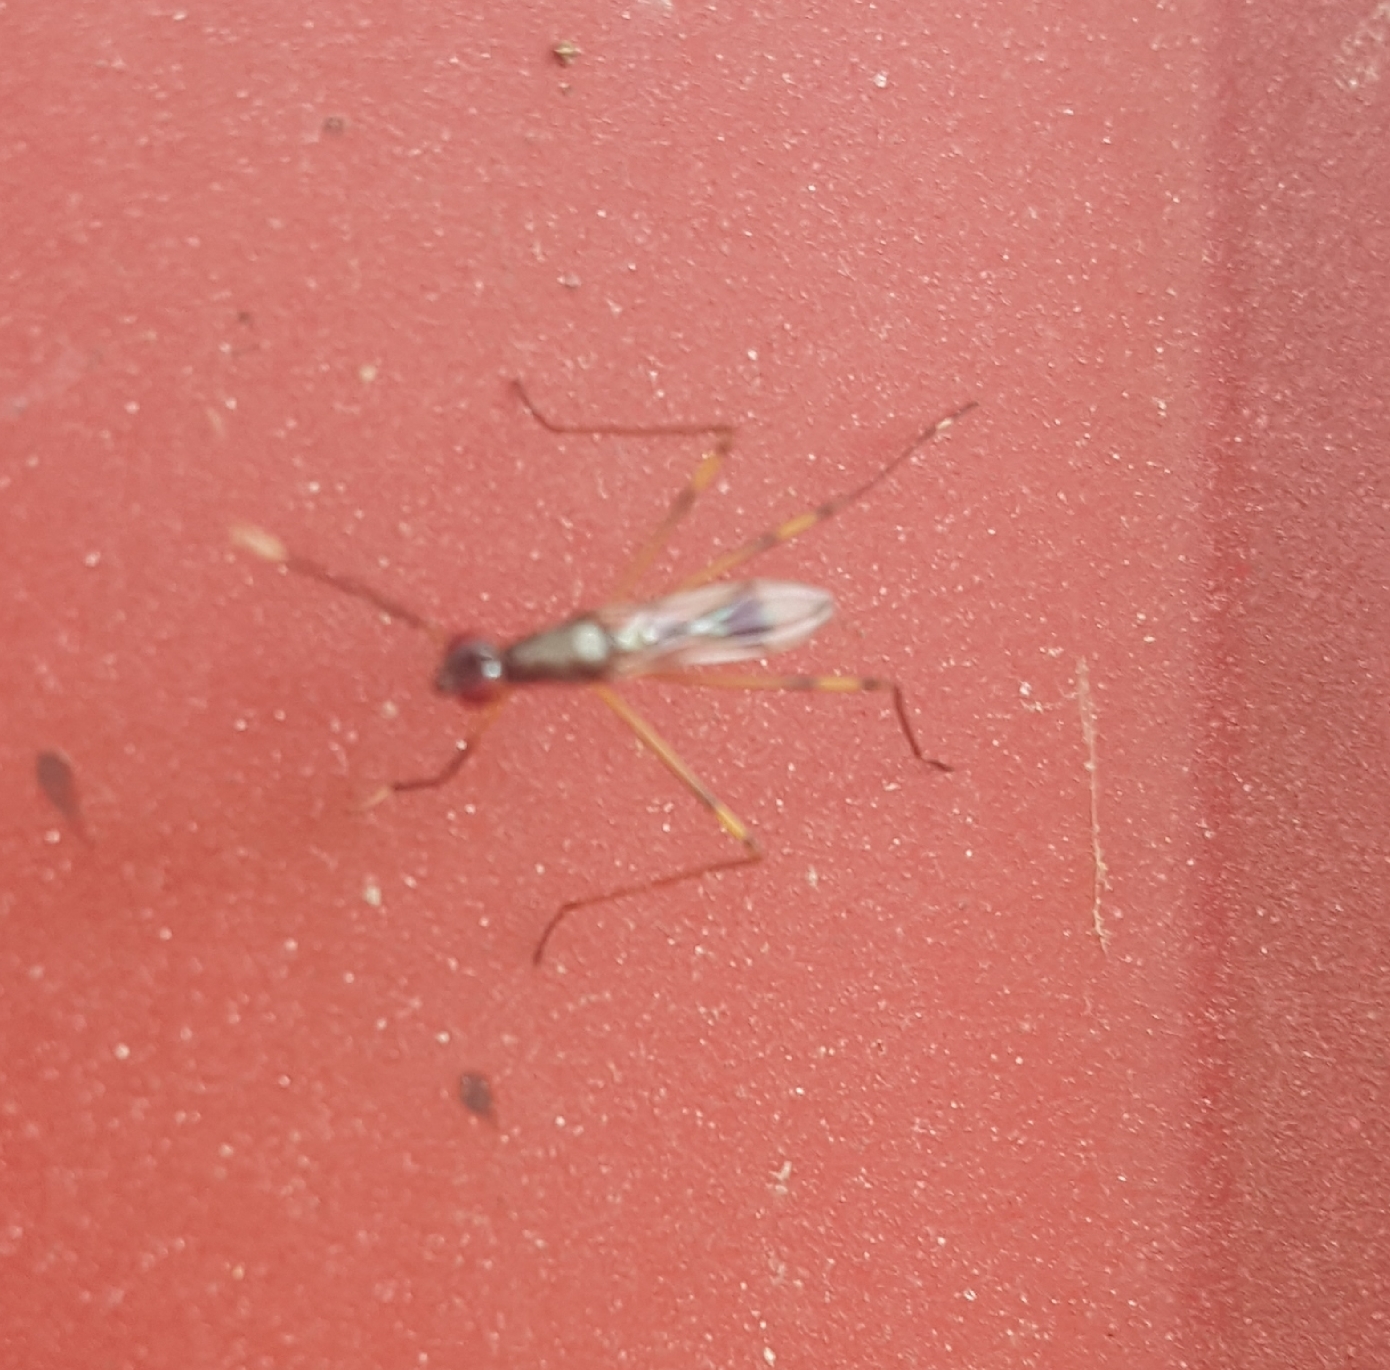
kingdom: Animalia
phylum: Arthropoda
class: Insecta
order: Diptera
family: Micropezidae
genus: Rainieria
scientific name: Rainieria antennaepes
